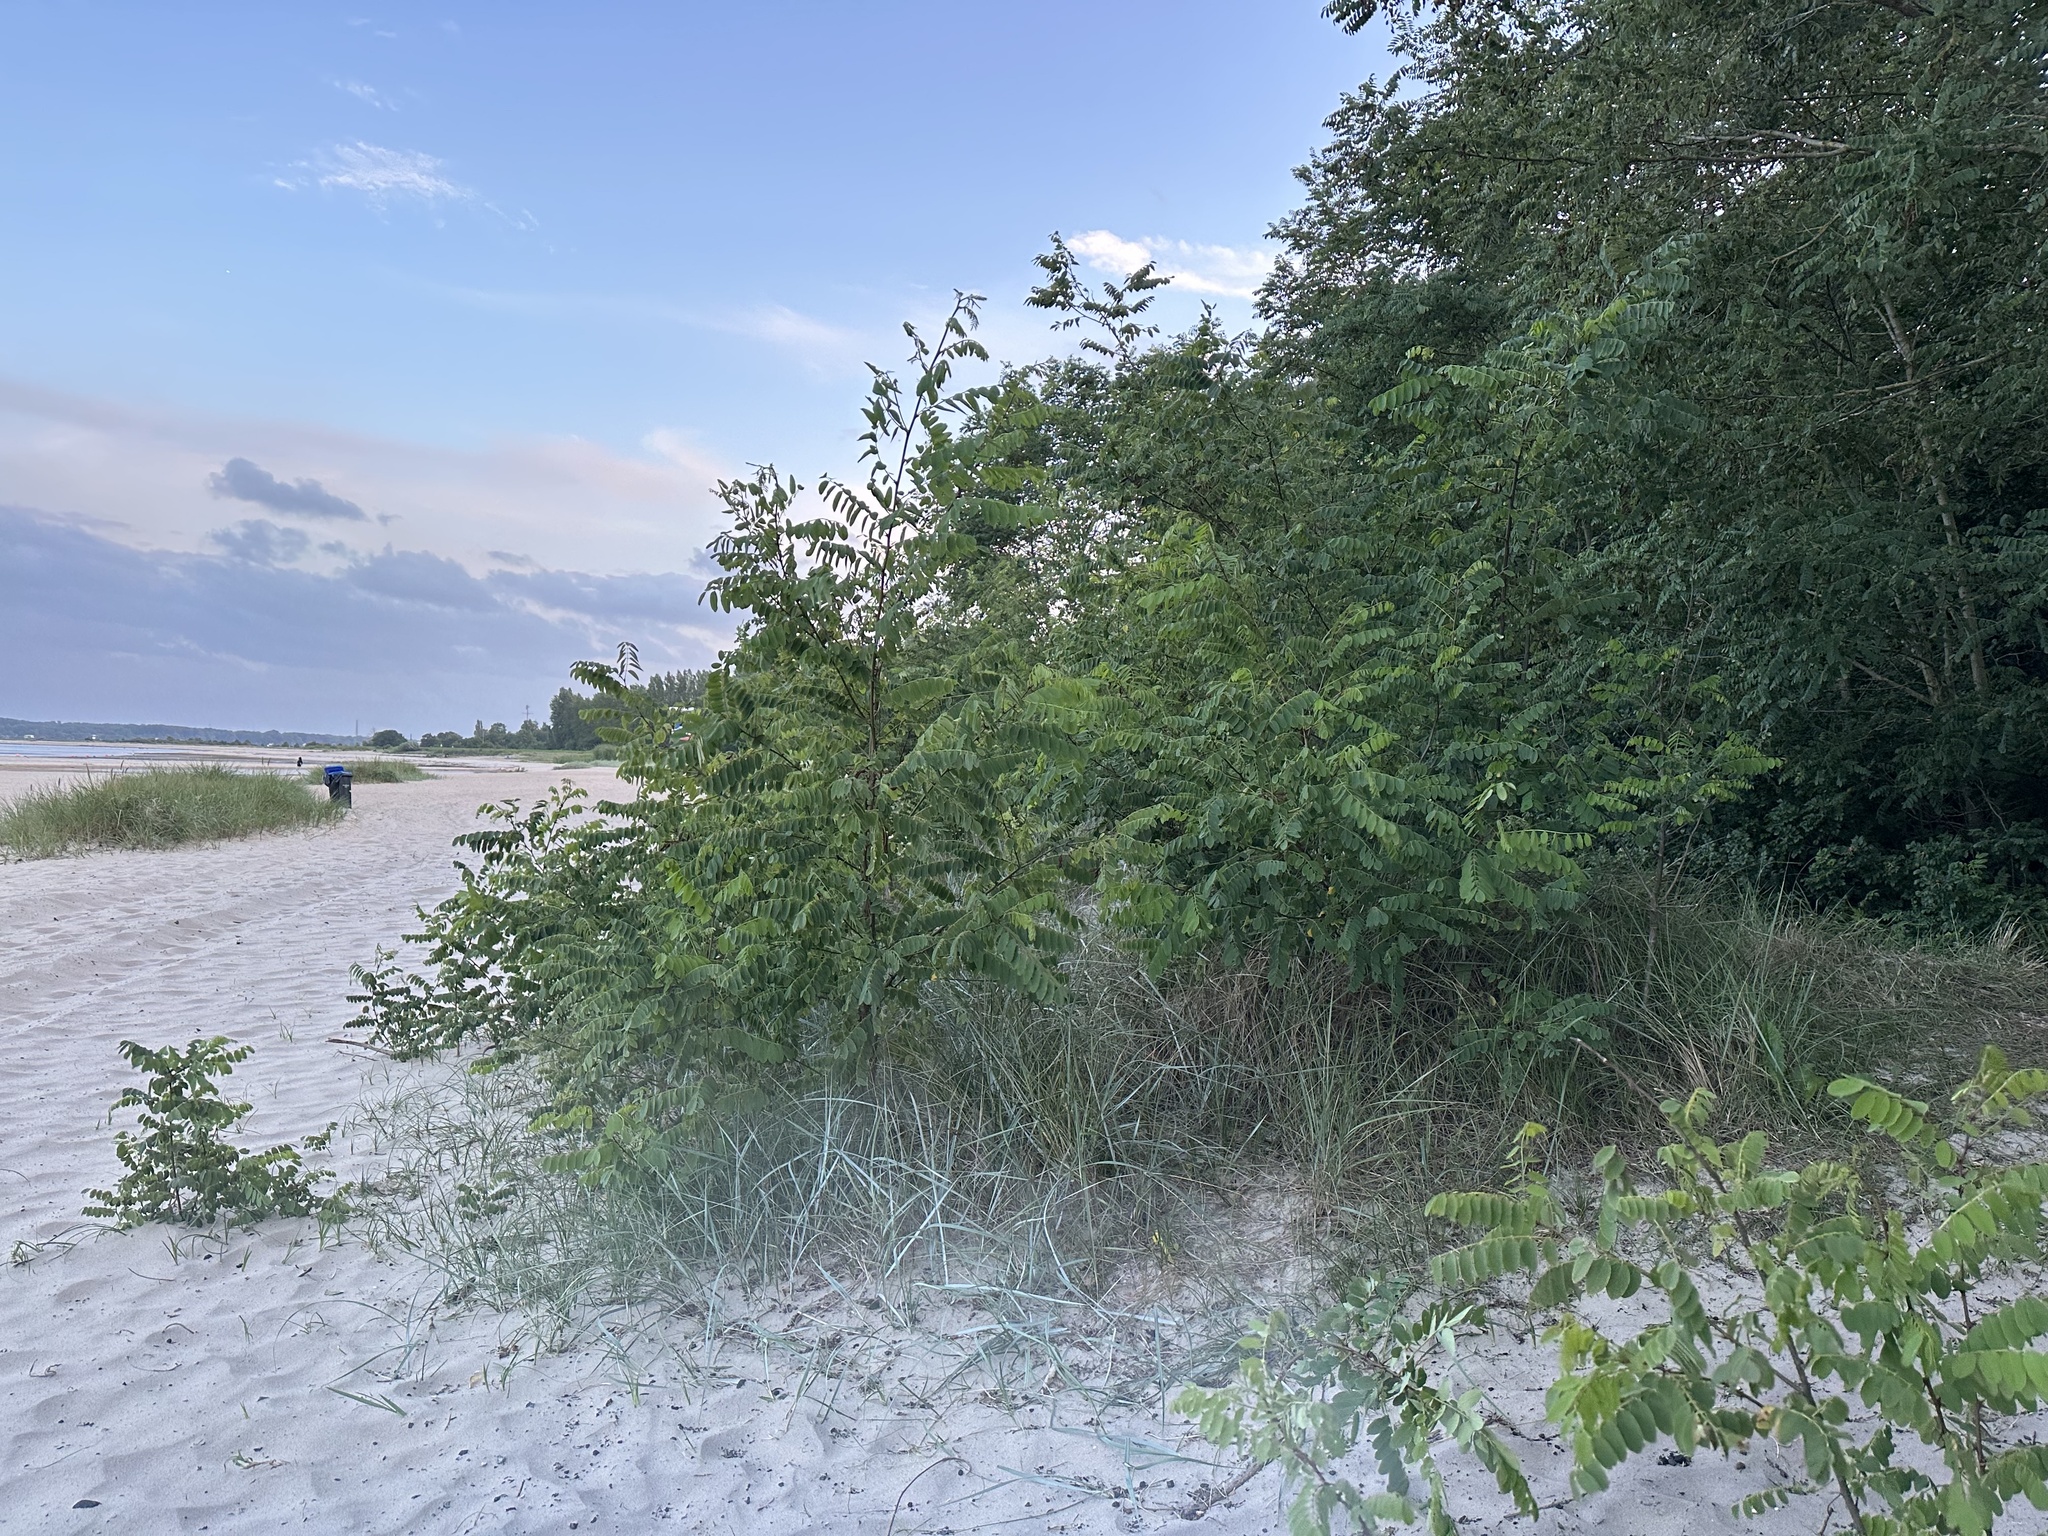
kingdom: Plantae
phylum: Tracheophyta
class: Magnoliopsida
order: Fabales
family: Fabaceae
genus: Robinia
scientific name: Robinia pseudoacacia
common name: Black locust
